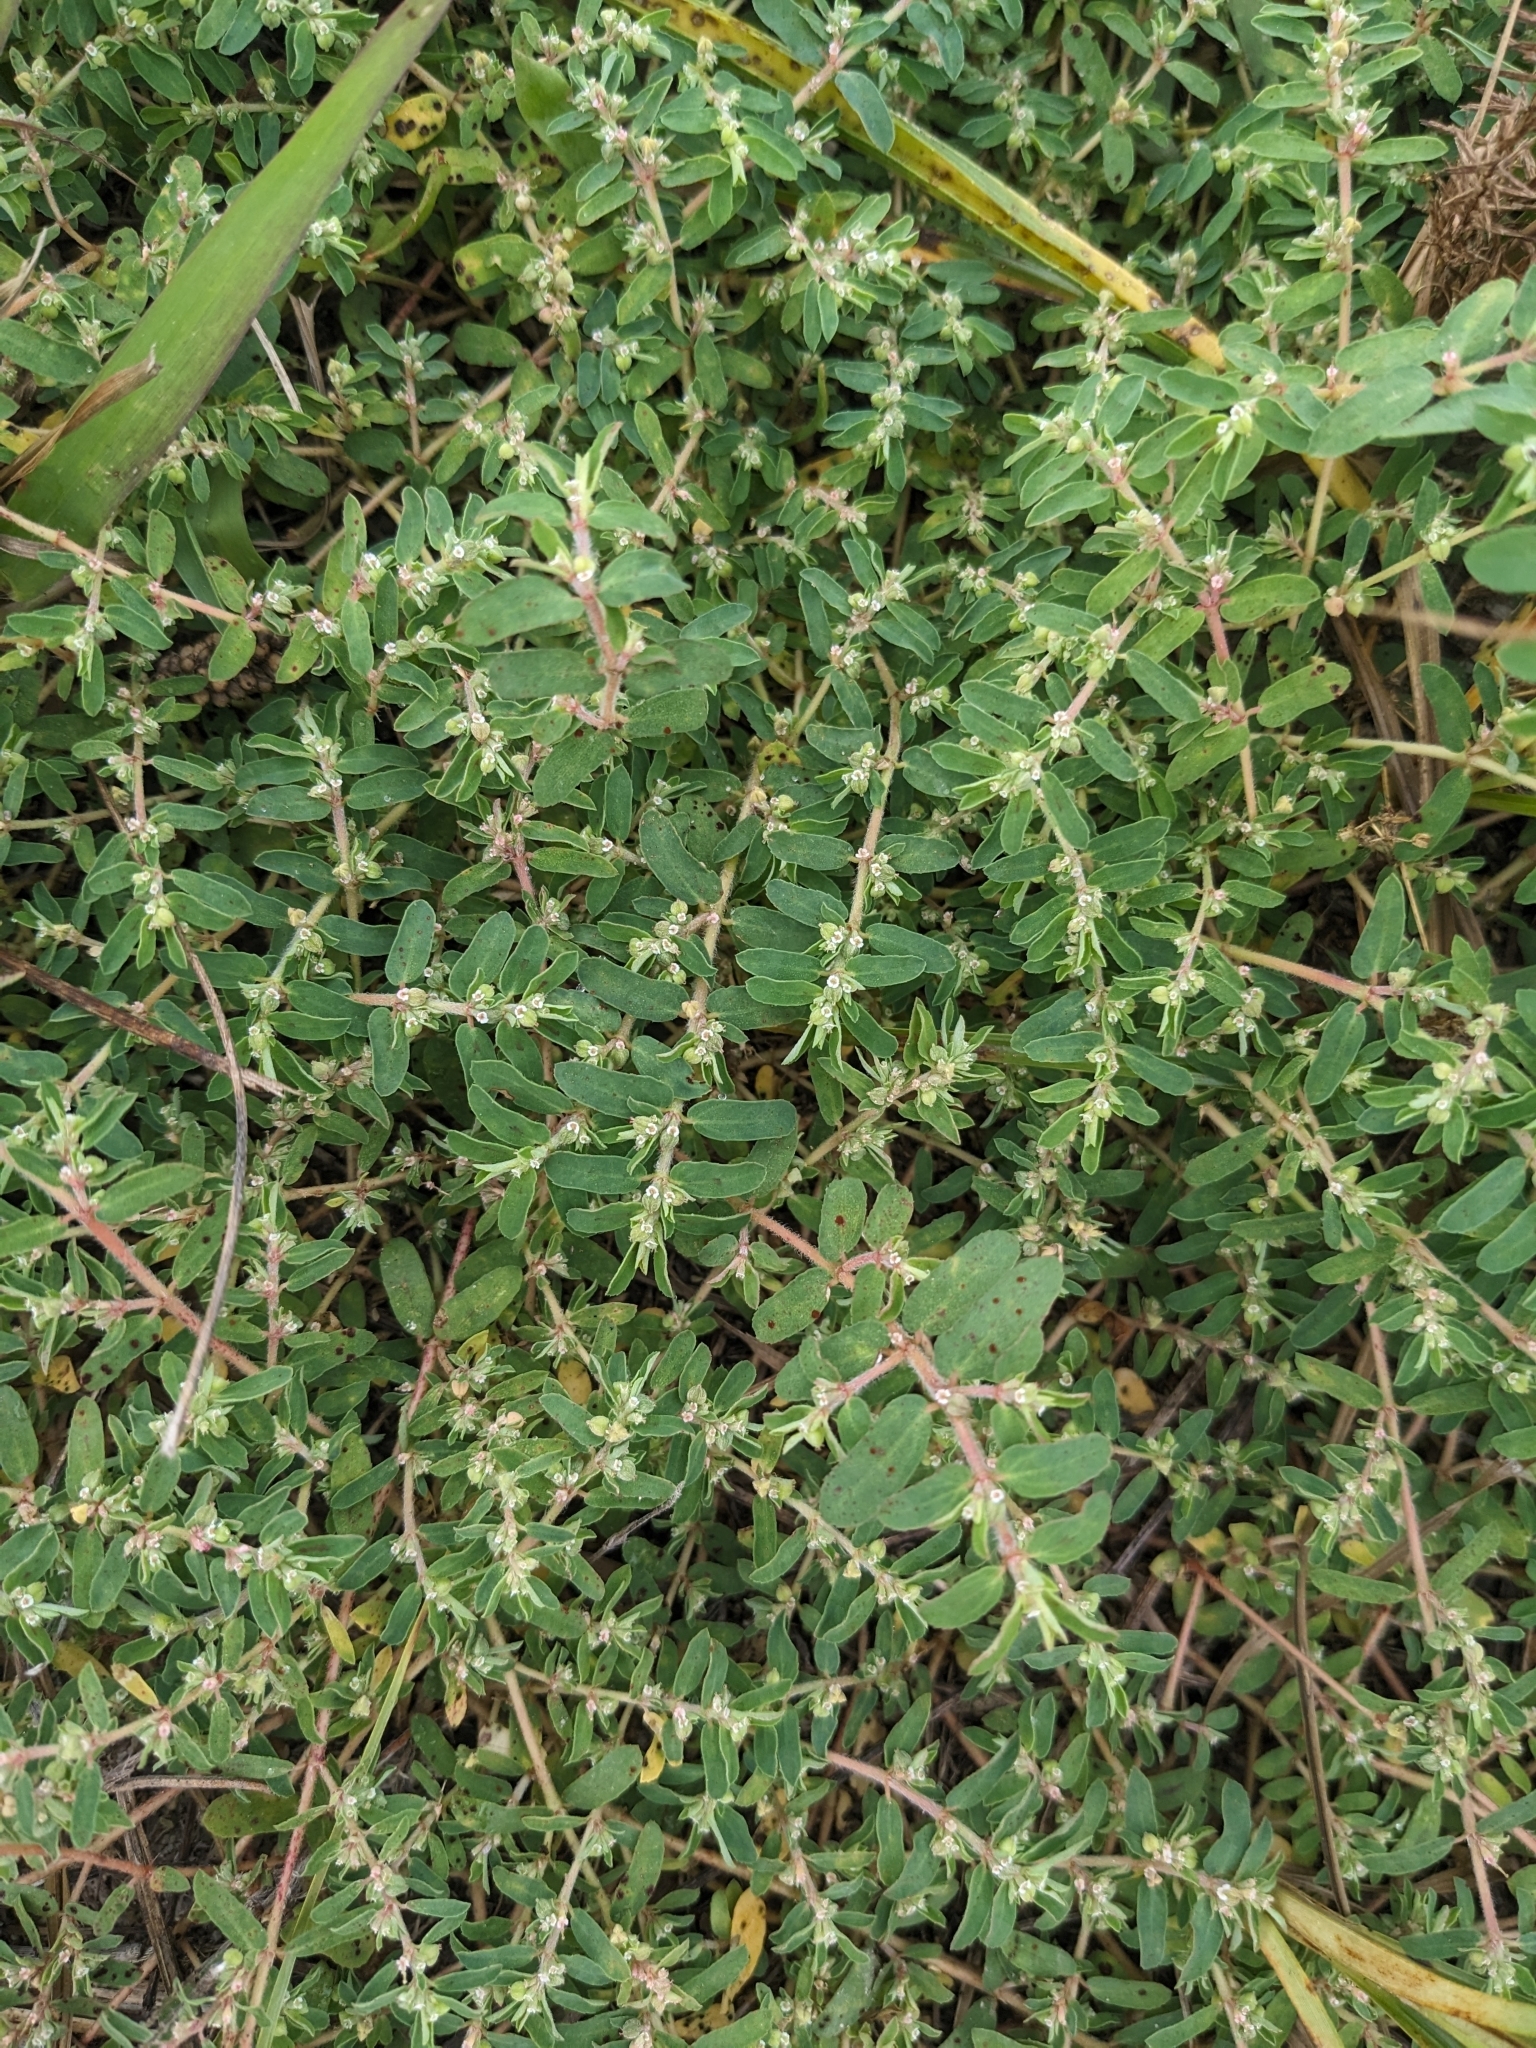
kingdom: Plantae
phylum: Tracheophyta
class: Magnoliopsida
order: Malpighiales
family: Euphorbiaceae
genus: Euphorbia
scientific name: Euphorbia maculata
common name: Spotted spurge
